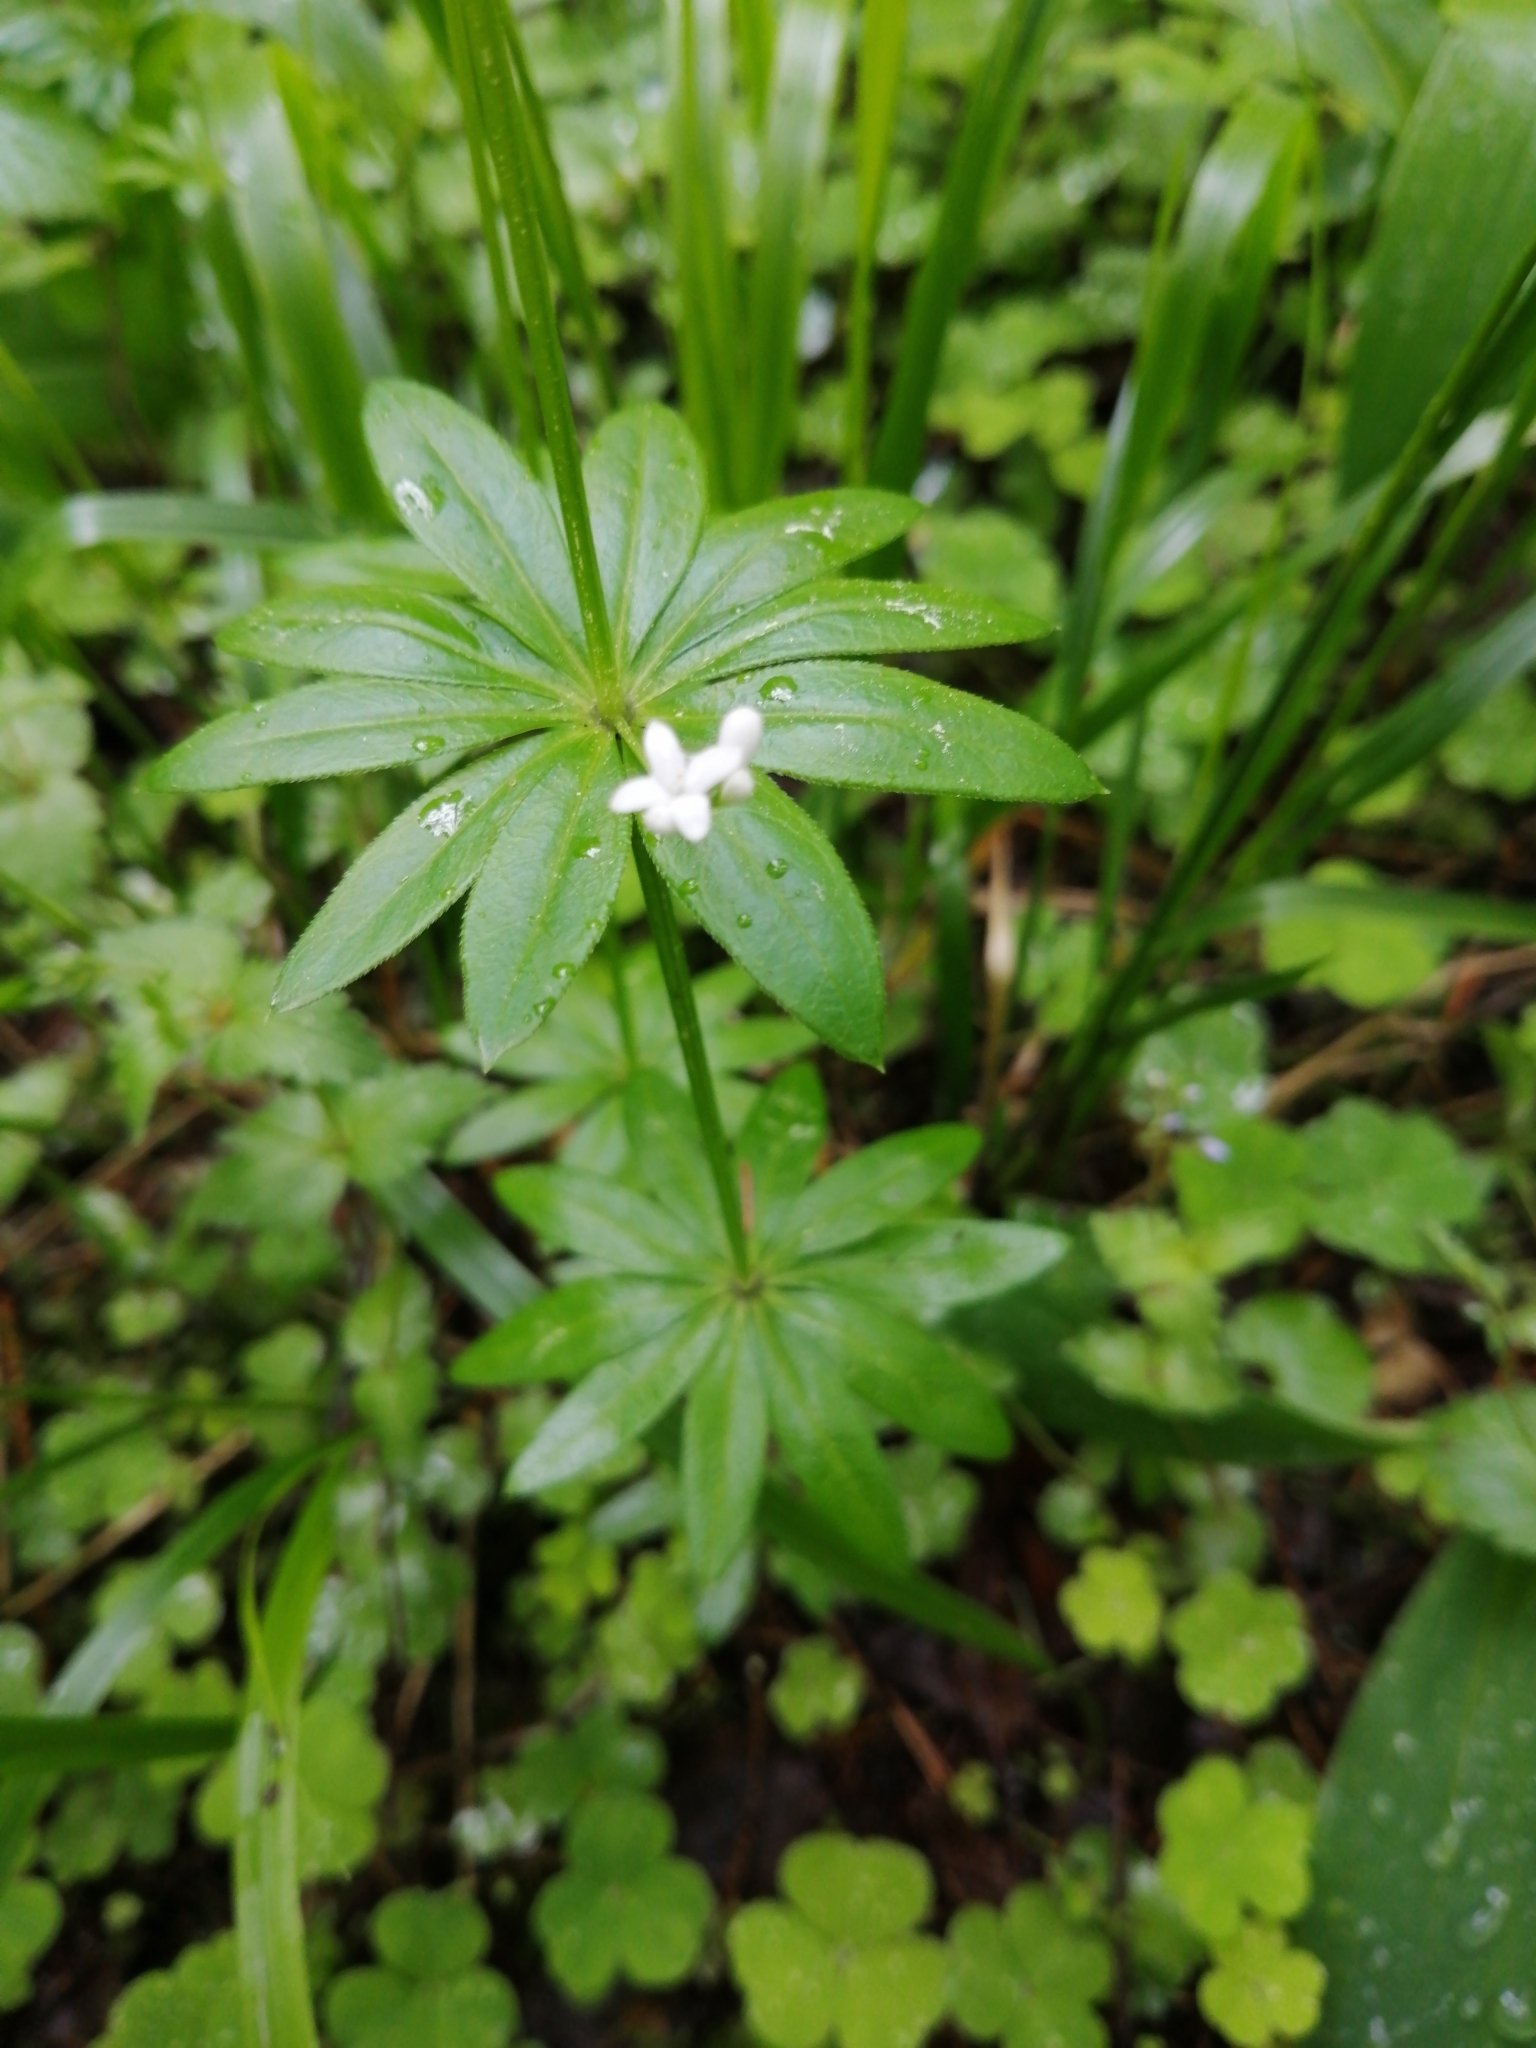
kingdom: Plantae
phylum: Tracheophyta
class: Magnoliopsida
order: Gentianales
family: Rubiaceae
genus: Galium
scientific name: Galium odoratum
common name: Sweet woodruff
